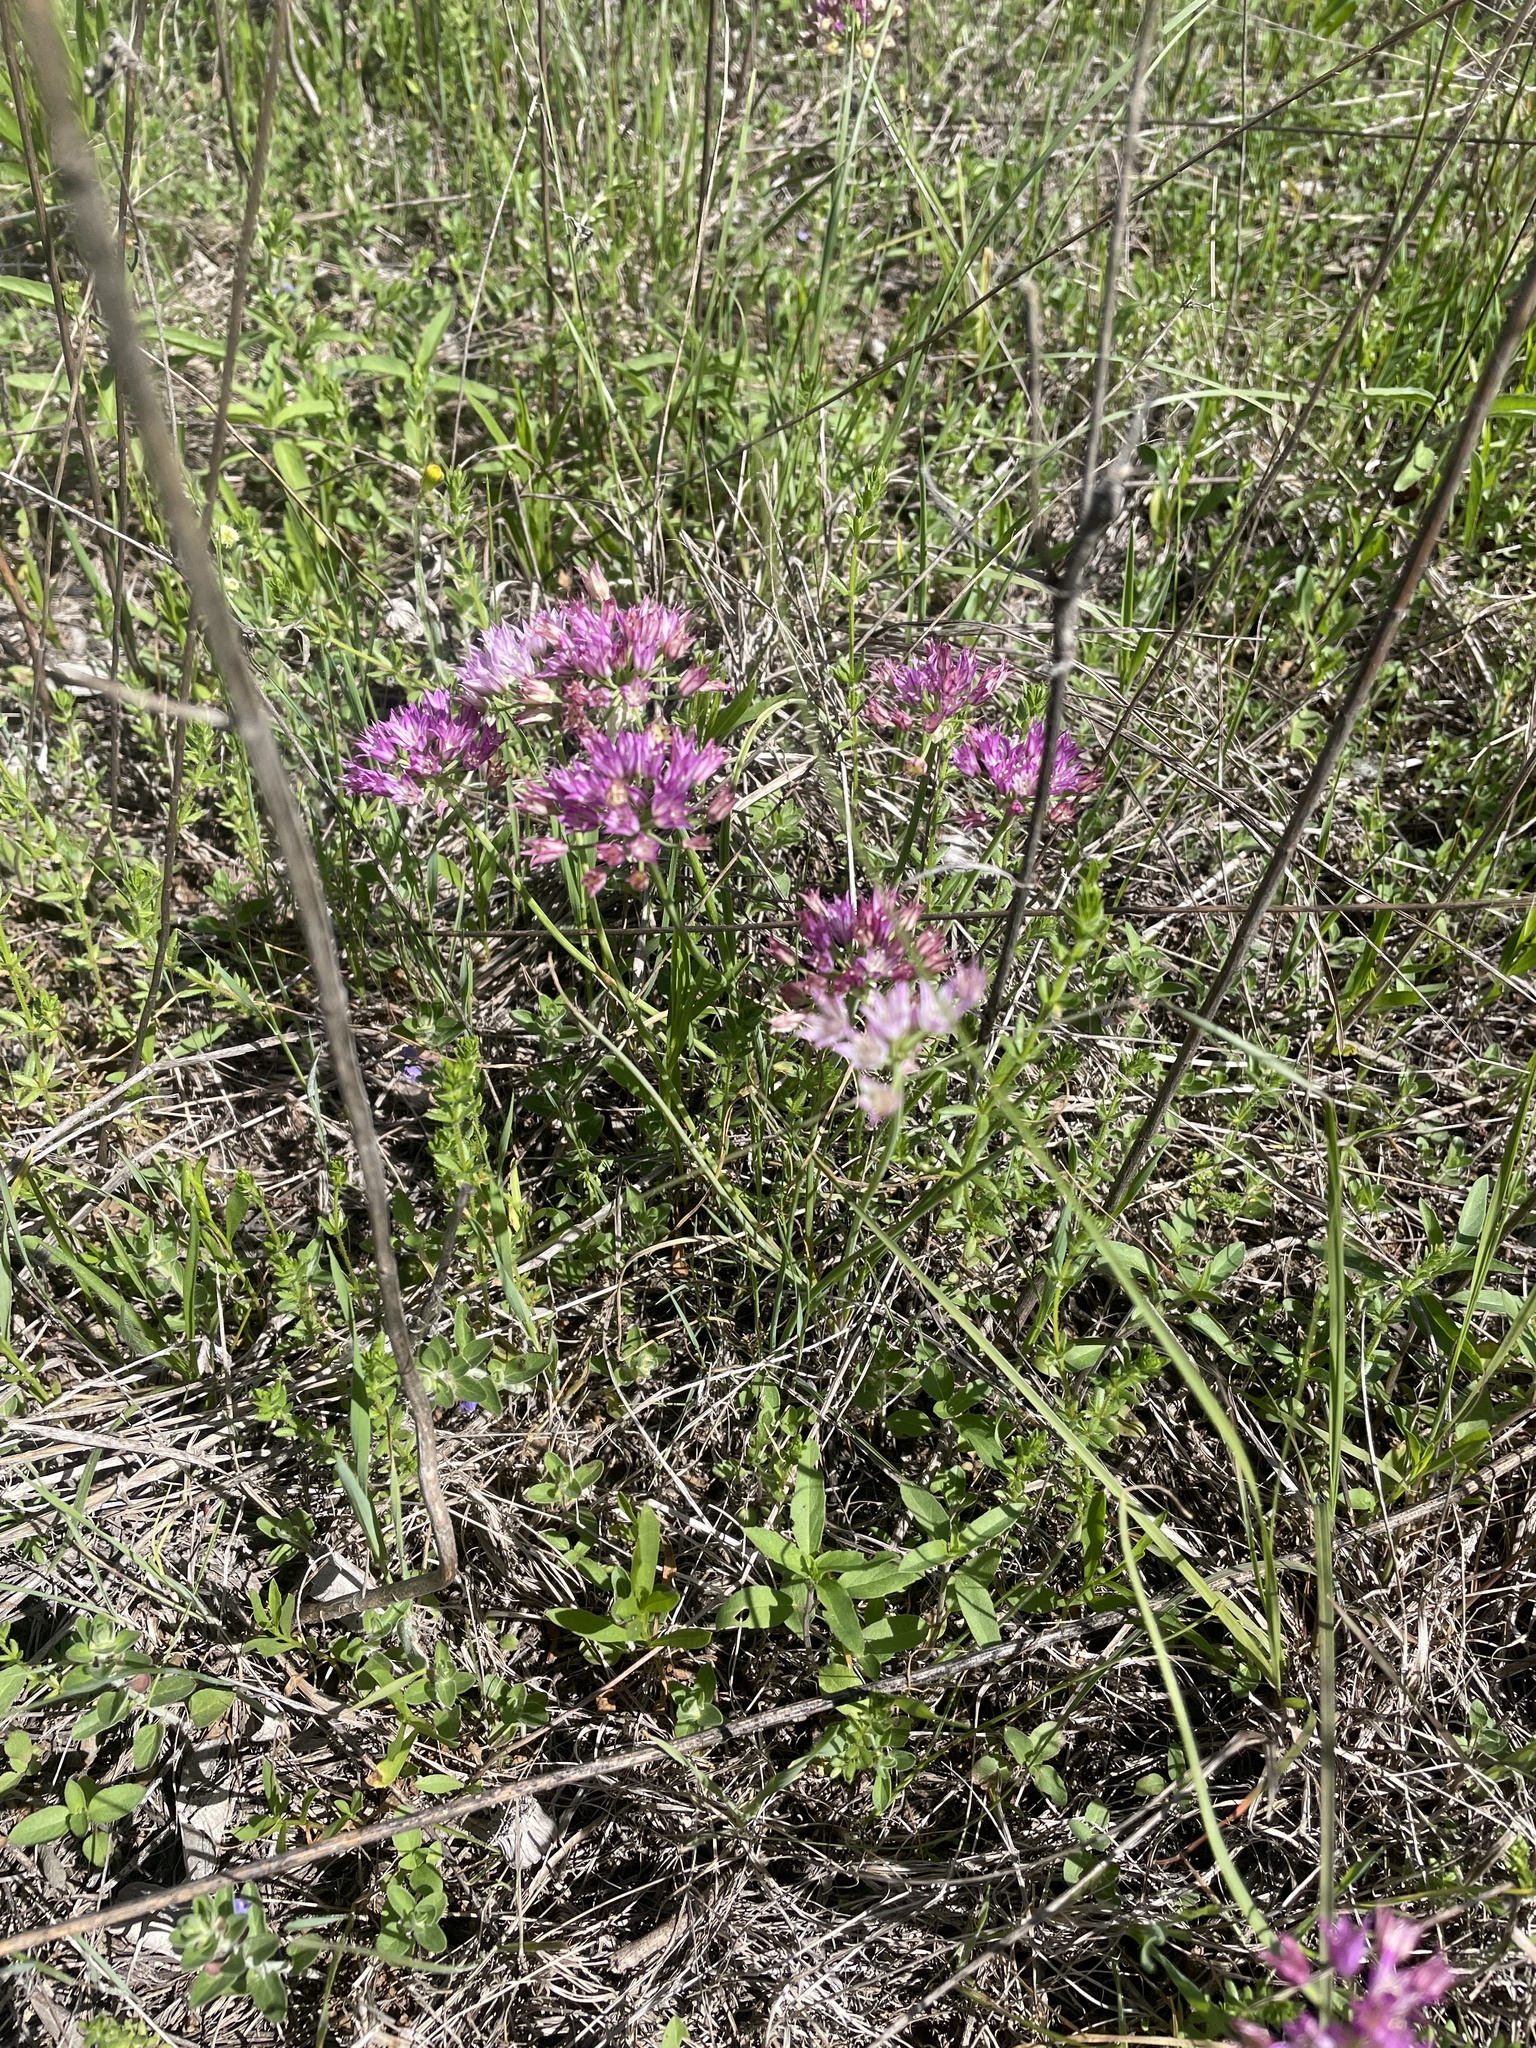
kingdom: Plantae
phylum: Tracheophyta
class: Liliopsida
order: Asparagales
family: Amaryllidaceae
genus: Allium
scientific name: Allium drummondii
